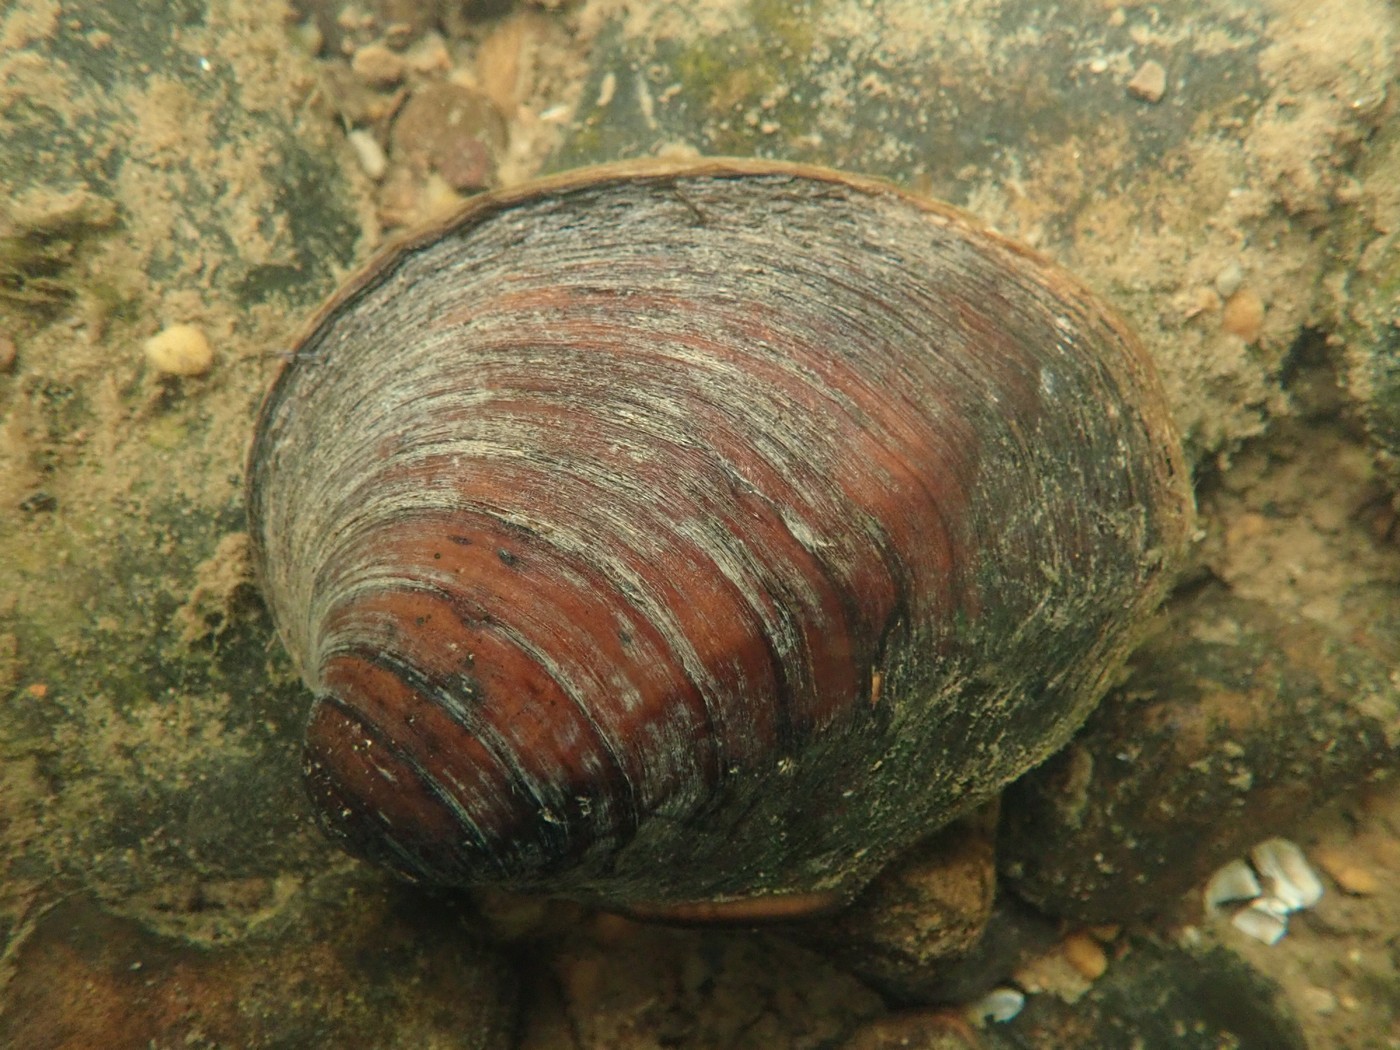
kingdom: Animalia
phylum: Mollusca
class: Bivalvia
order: Unionida
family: Unionidae
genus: Pleurobema
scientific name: Pleurobema sintoxia
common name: Round pigtoe
